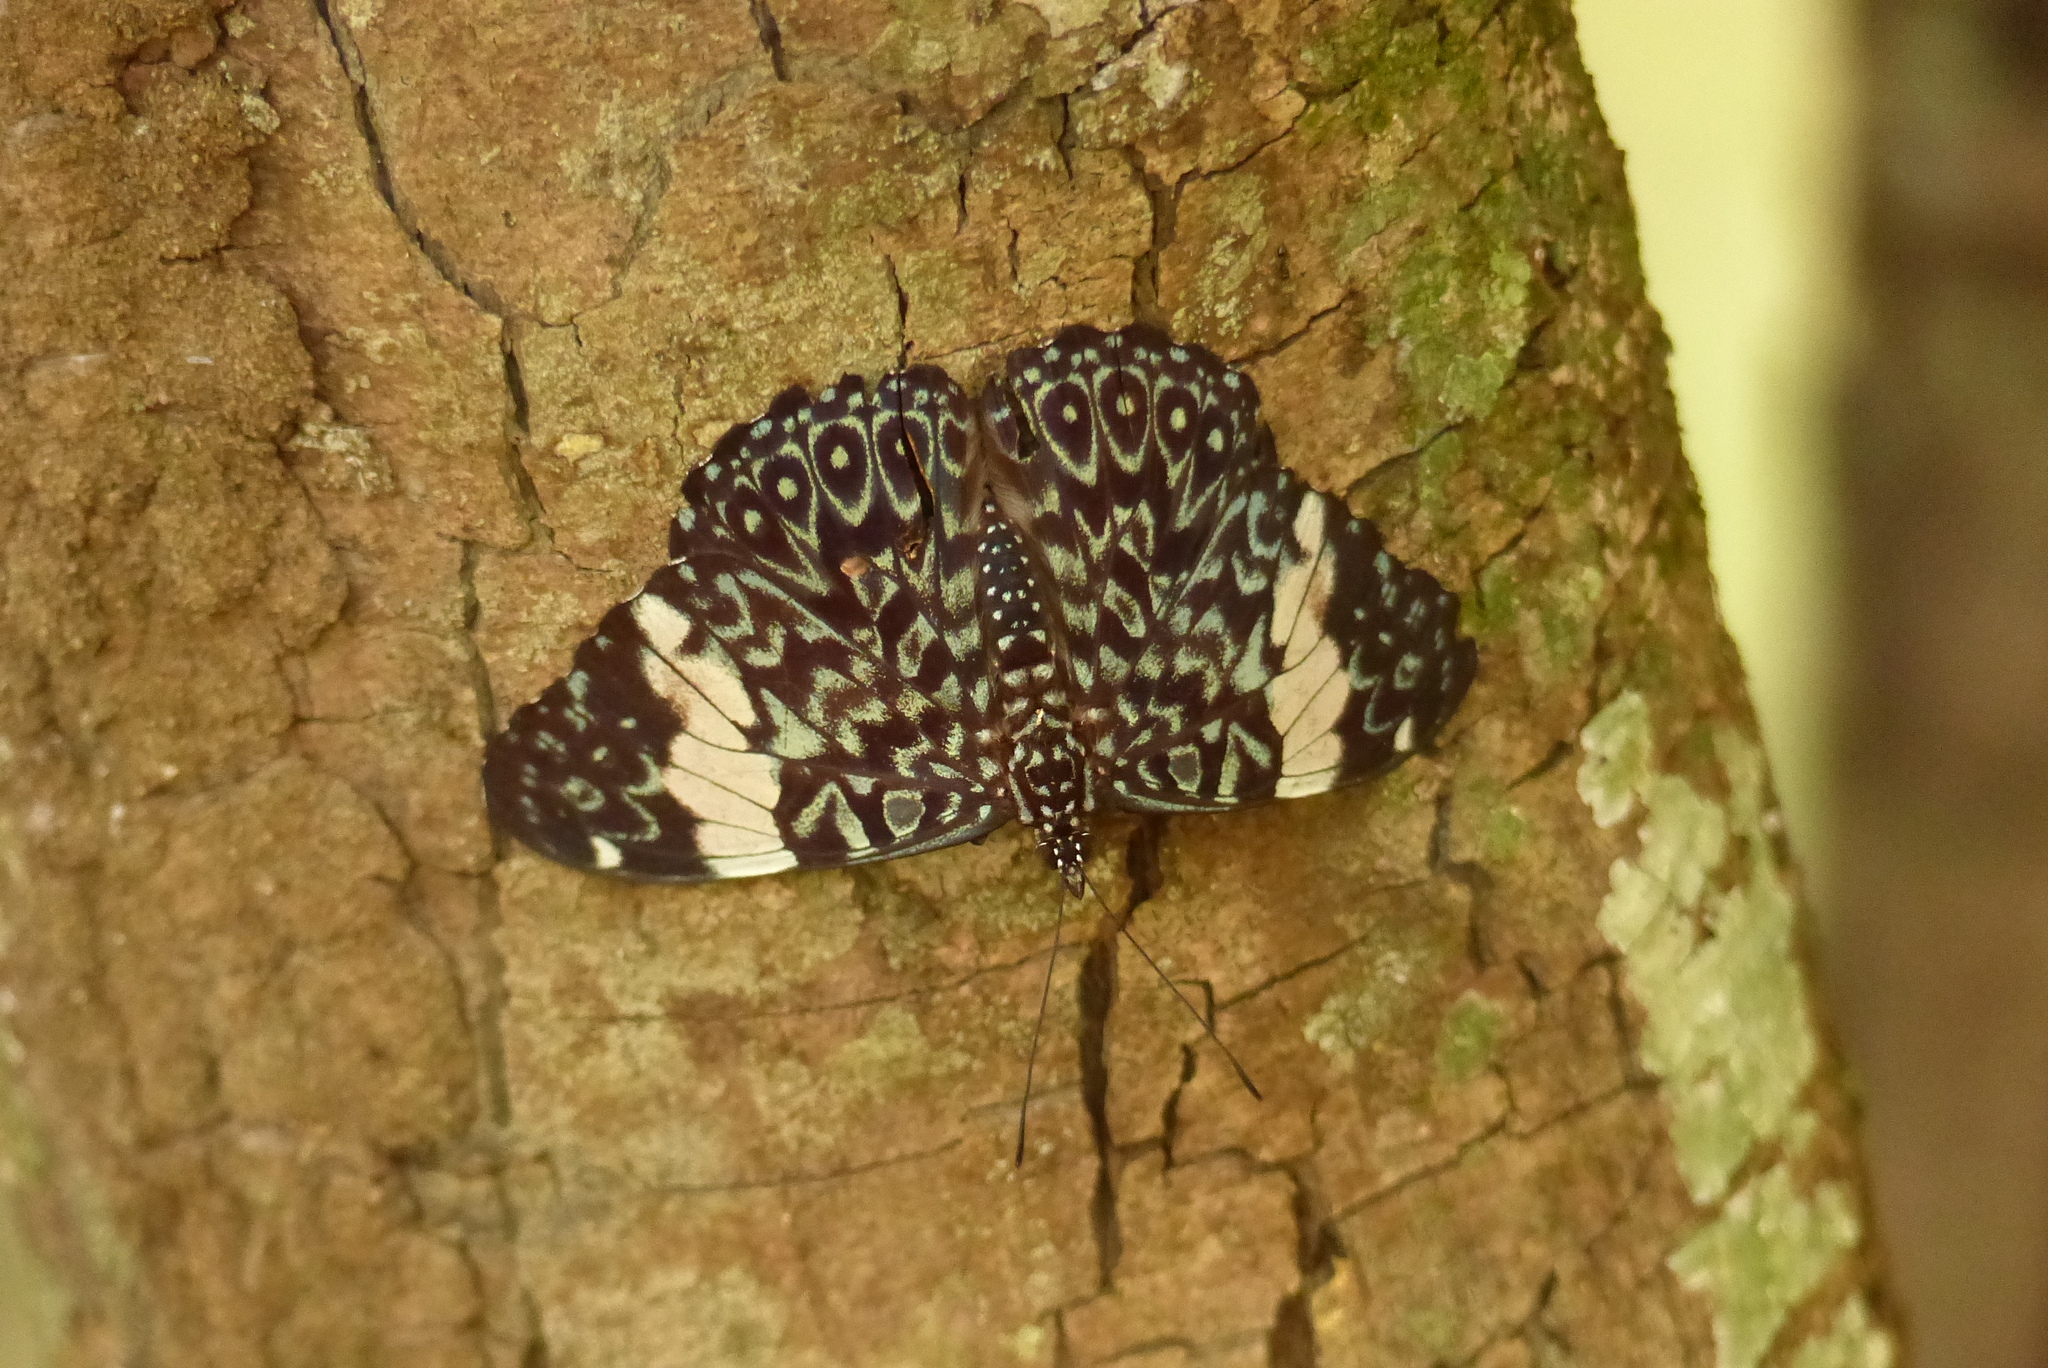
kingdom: Animalia
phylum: Arthropoda
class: Insecta
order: Lepidoptera
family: Nymphalidae
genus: Hamadryas
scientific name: Hamadryas amphinome
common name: Red cracker
